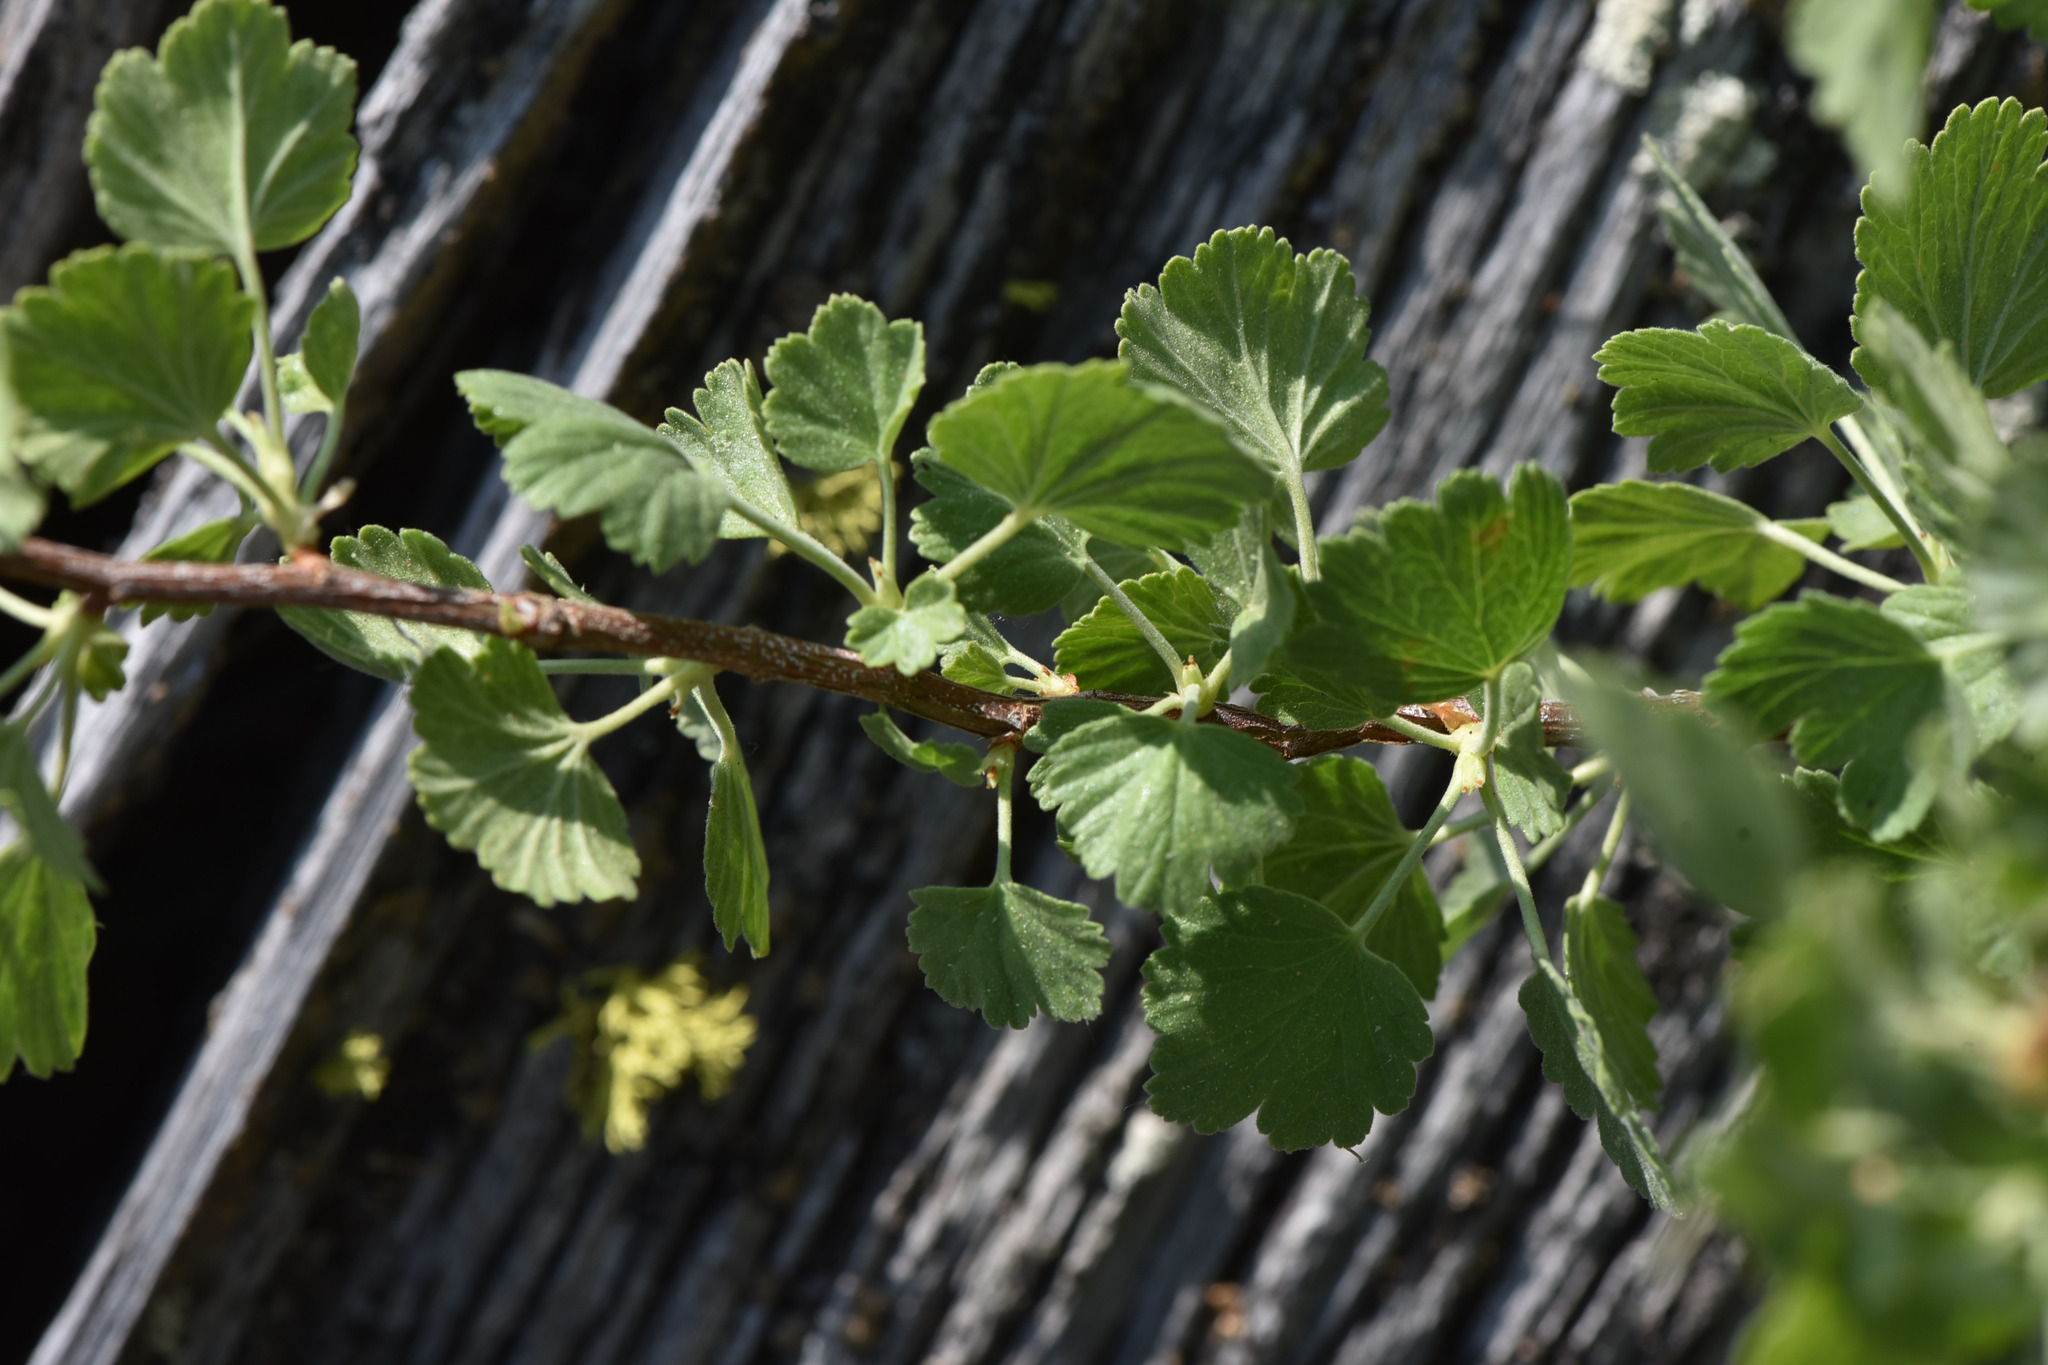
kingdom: Plantae
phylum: Tracheophyta
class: Magnoliopsida
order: Saxifragales
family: Grossulariaceae
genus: Ribes
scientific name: Ribes cereum
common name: Wax currant
